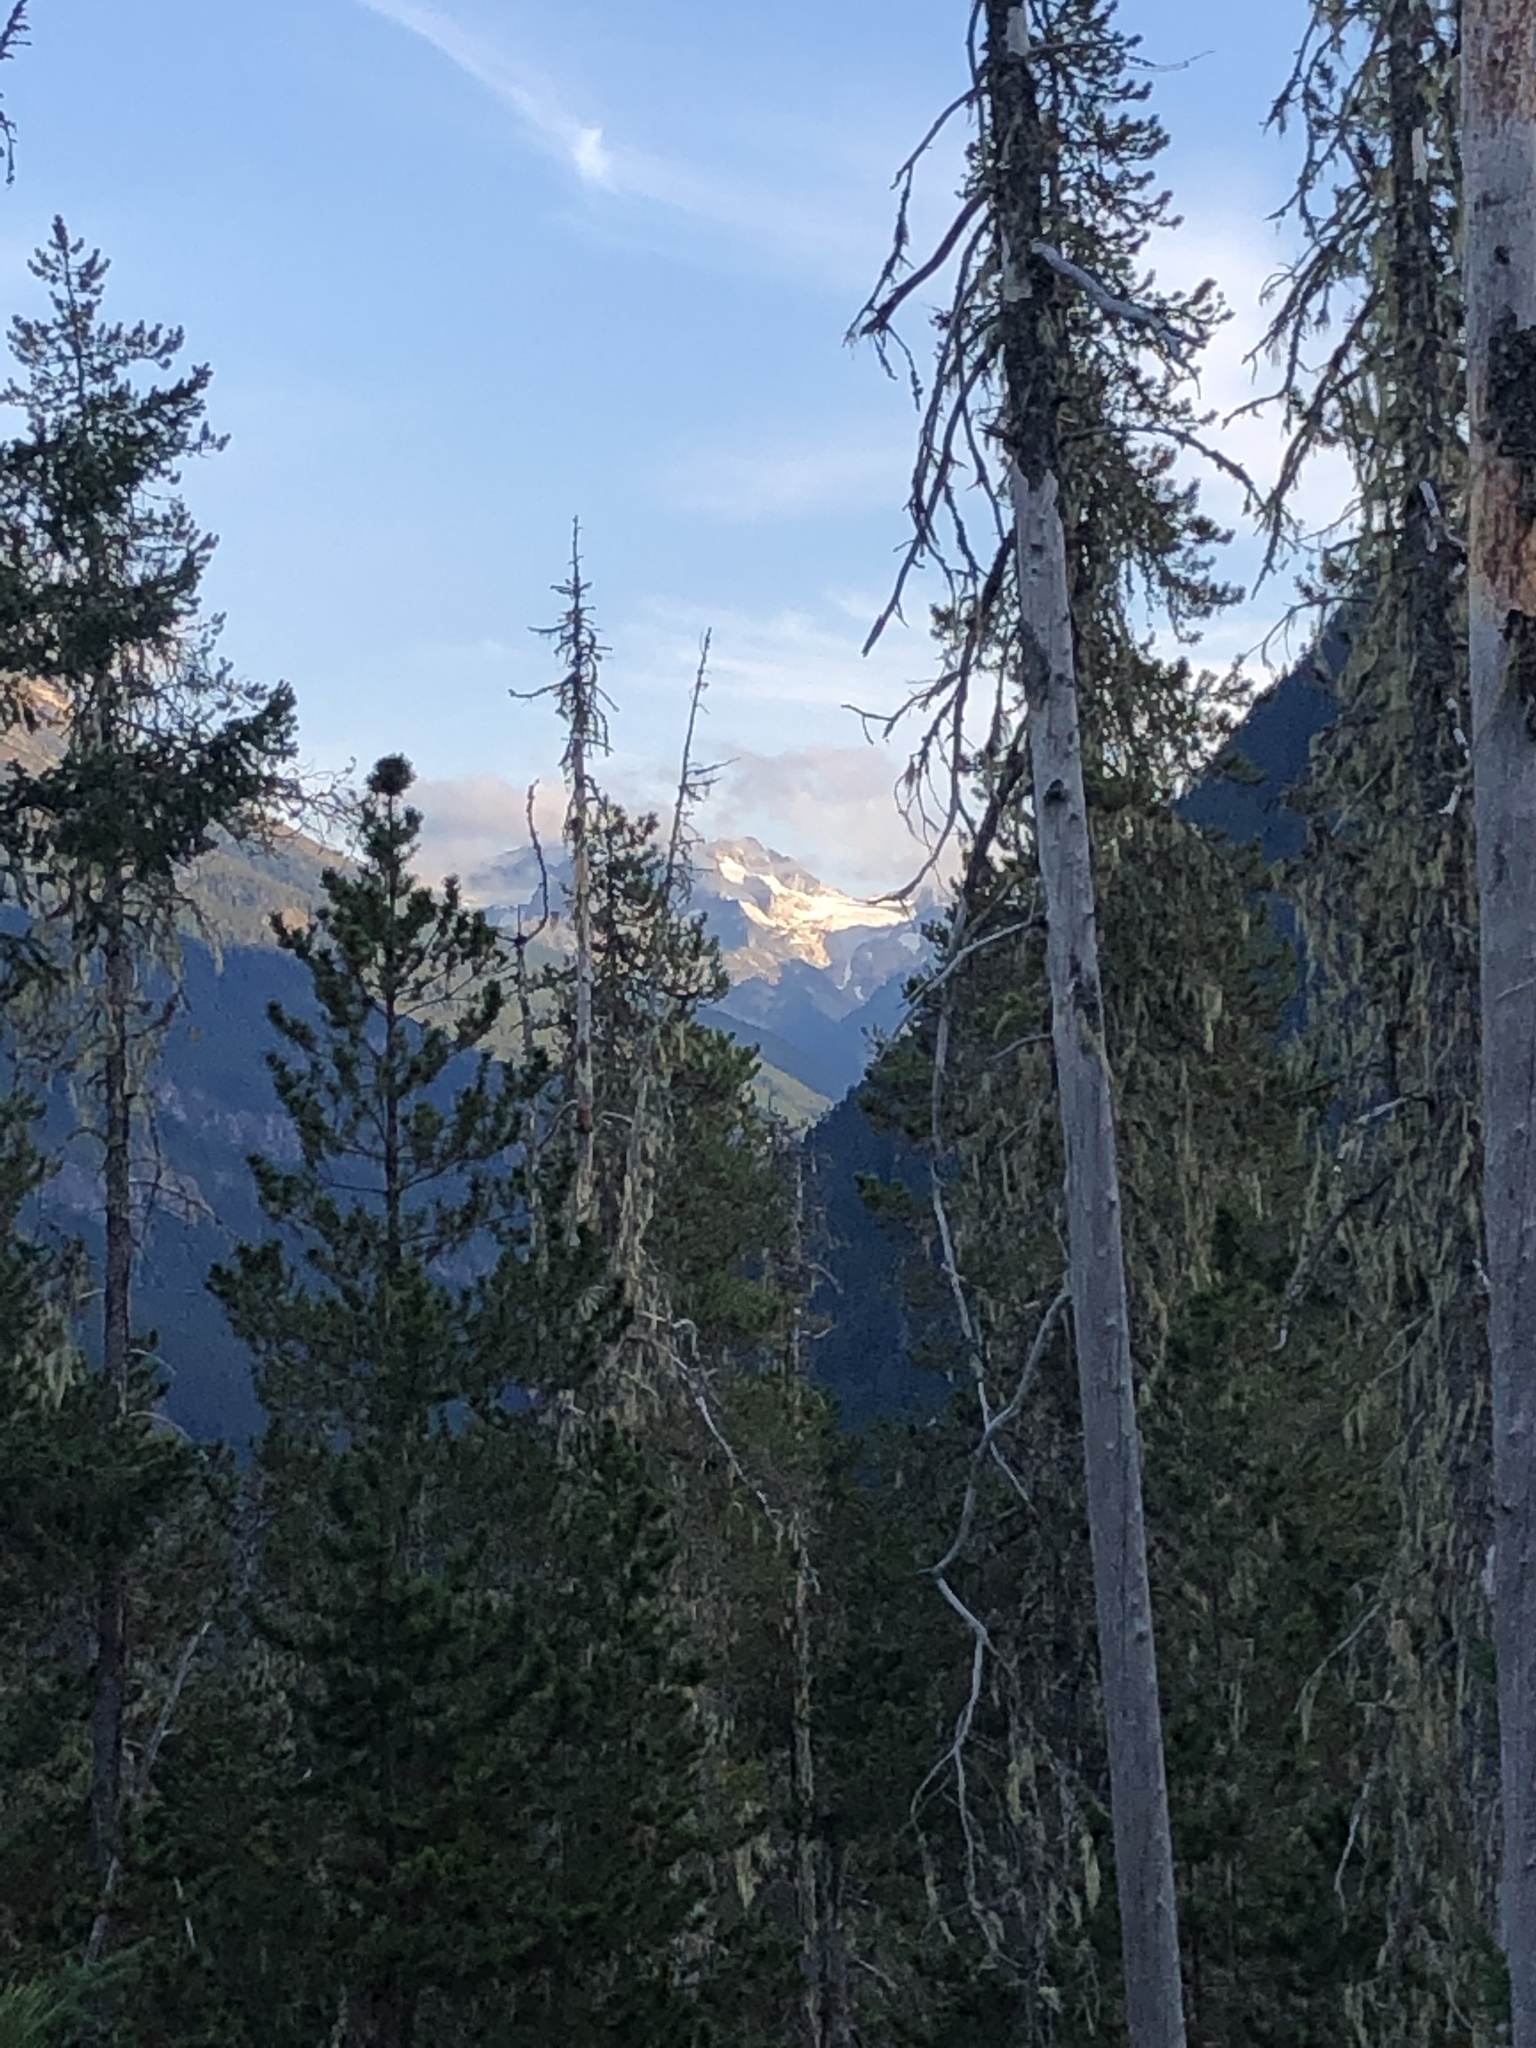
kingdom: Plantae
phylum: Tracheophyta
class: Pinopsida
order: Pinales
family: Pinaceae
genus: Pinus
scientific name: Pinus contorta
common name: Lodgepole pine
